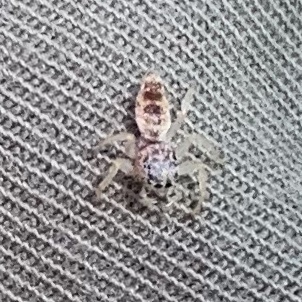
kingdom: Animalia
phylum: Arthropoda
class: Arachnida
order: Araneae
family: Salticidae
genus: Hentzia
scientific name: Hentzia mitrata
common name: White-jawed jumping spider
